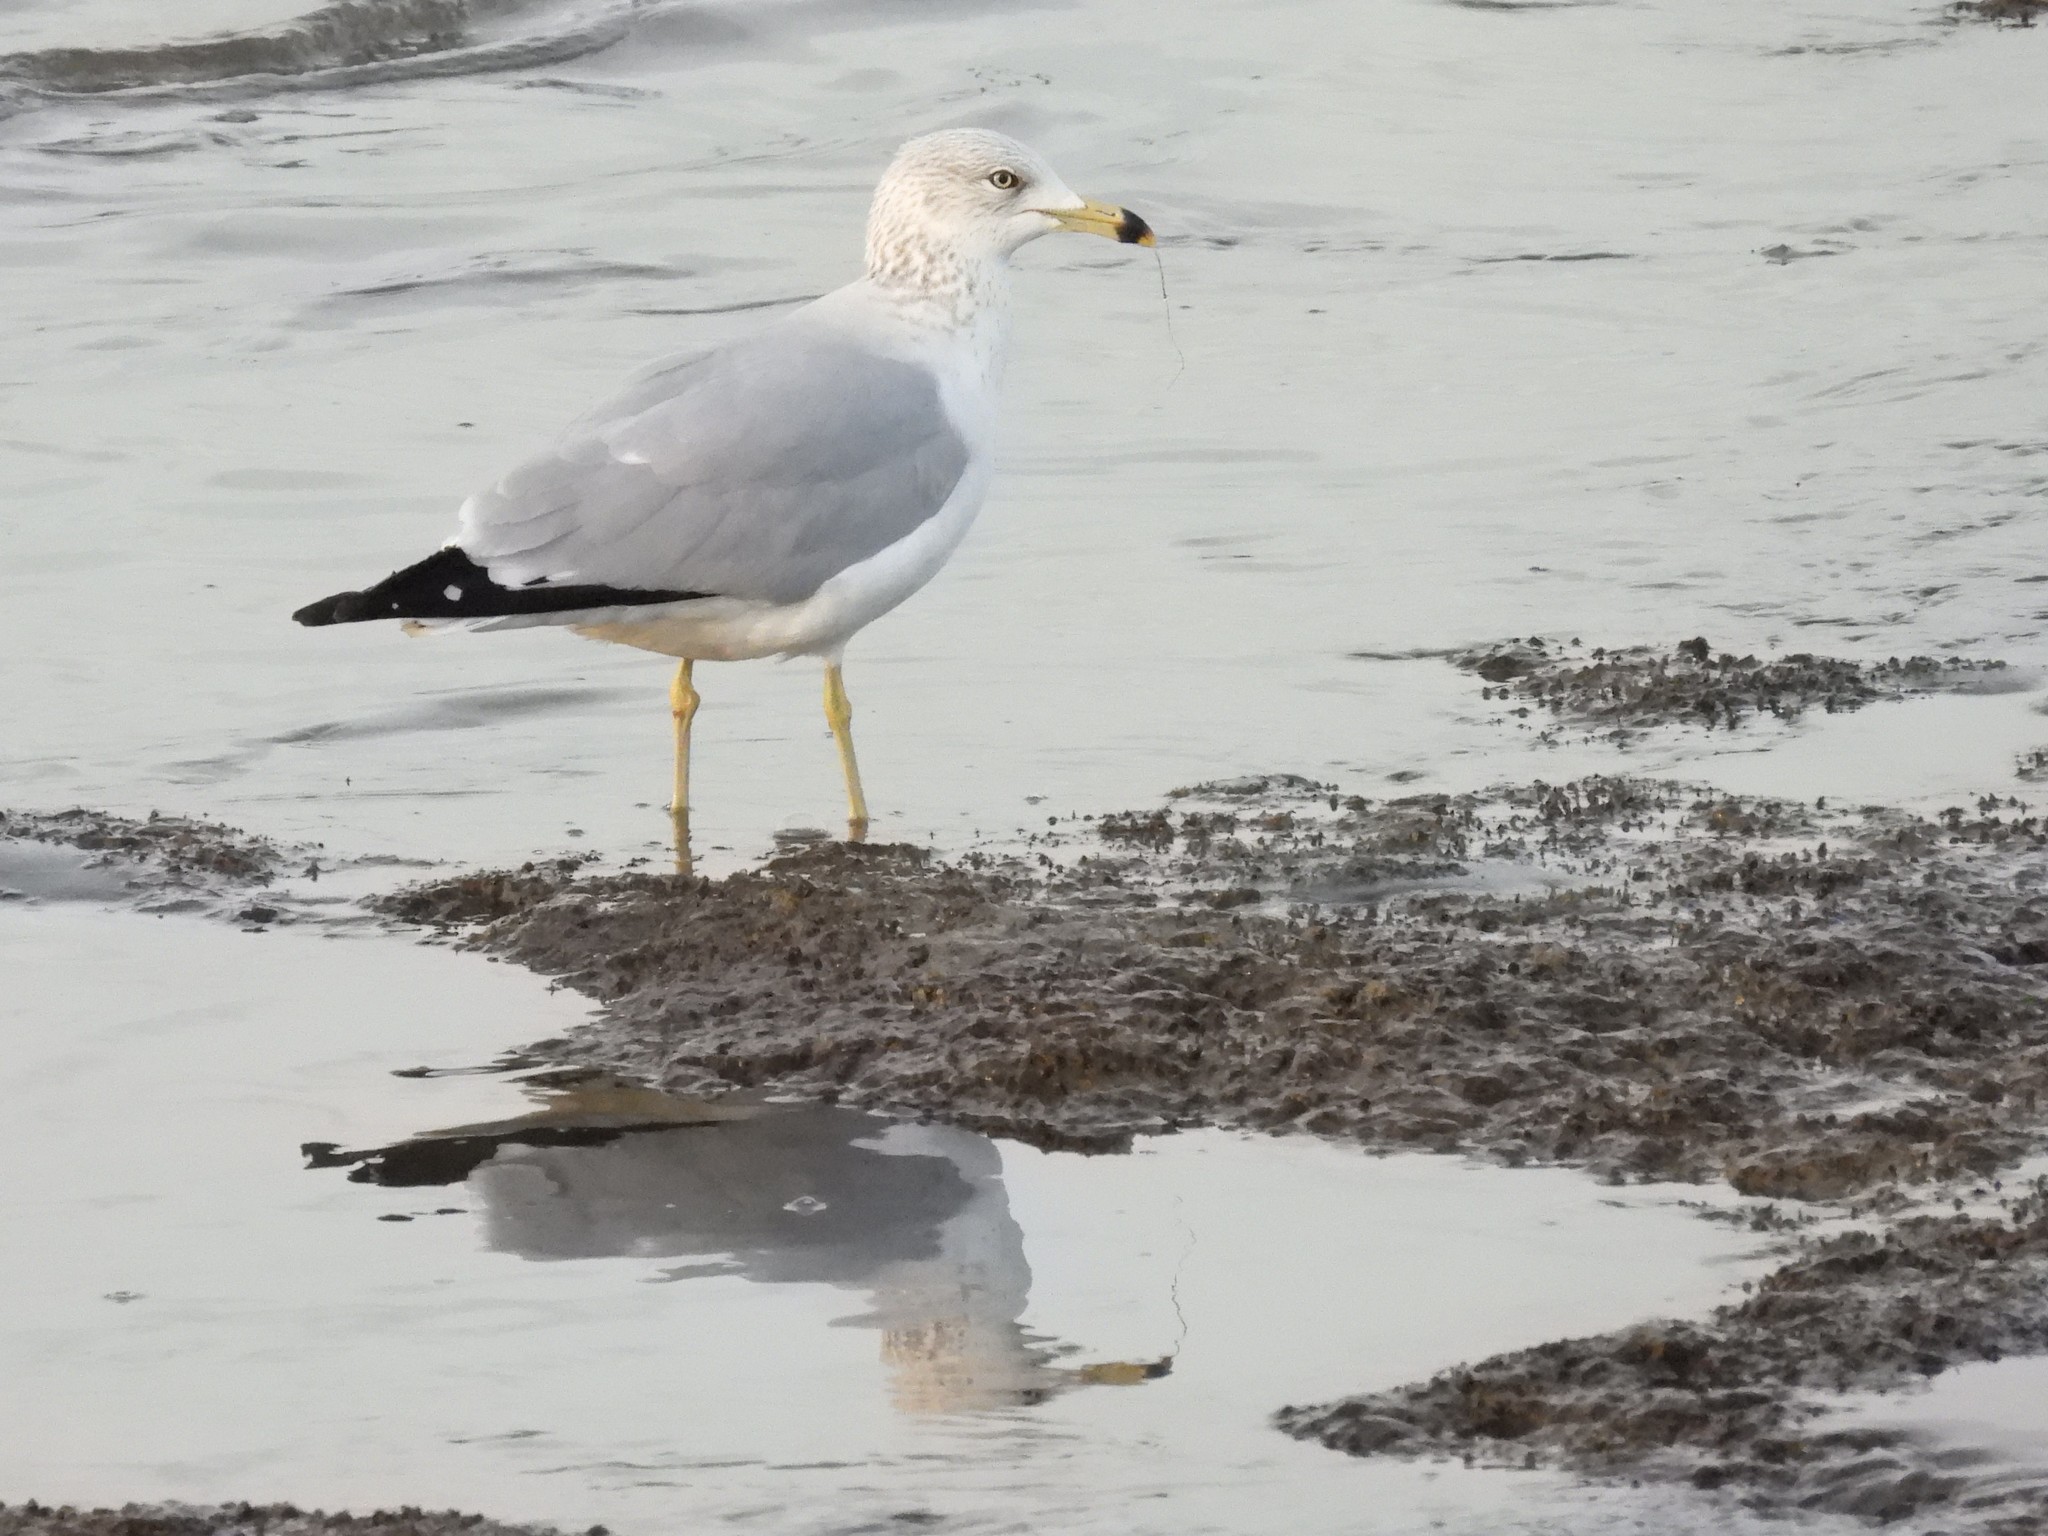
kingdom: Animalia
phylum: Chordata
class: Aves
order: Charadriiformes
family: Laridae
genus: Larus
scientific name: Larus delawarensis
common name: Ring-billed gull
